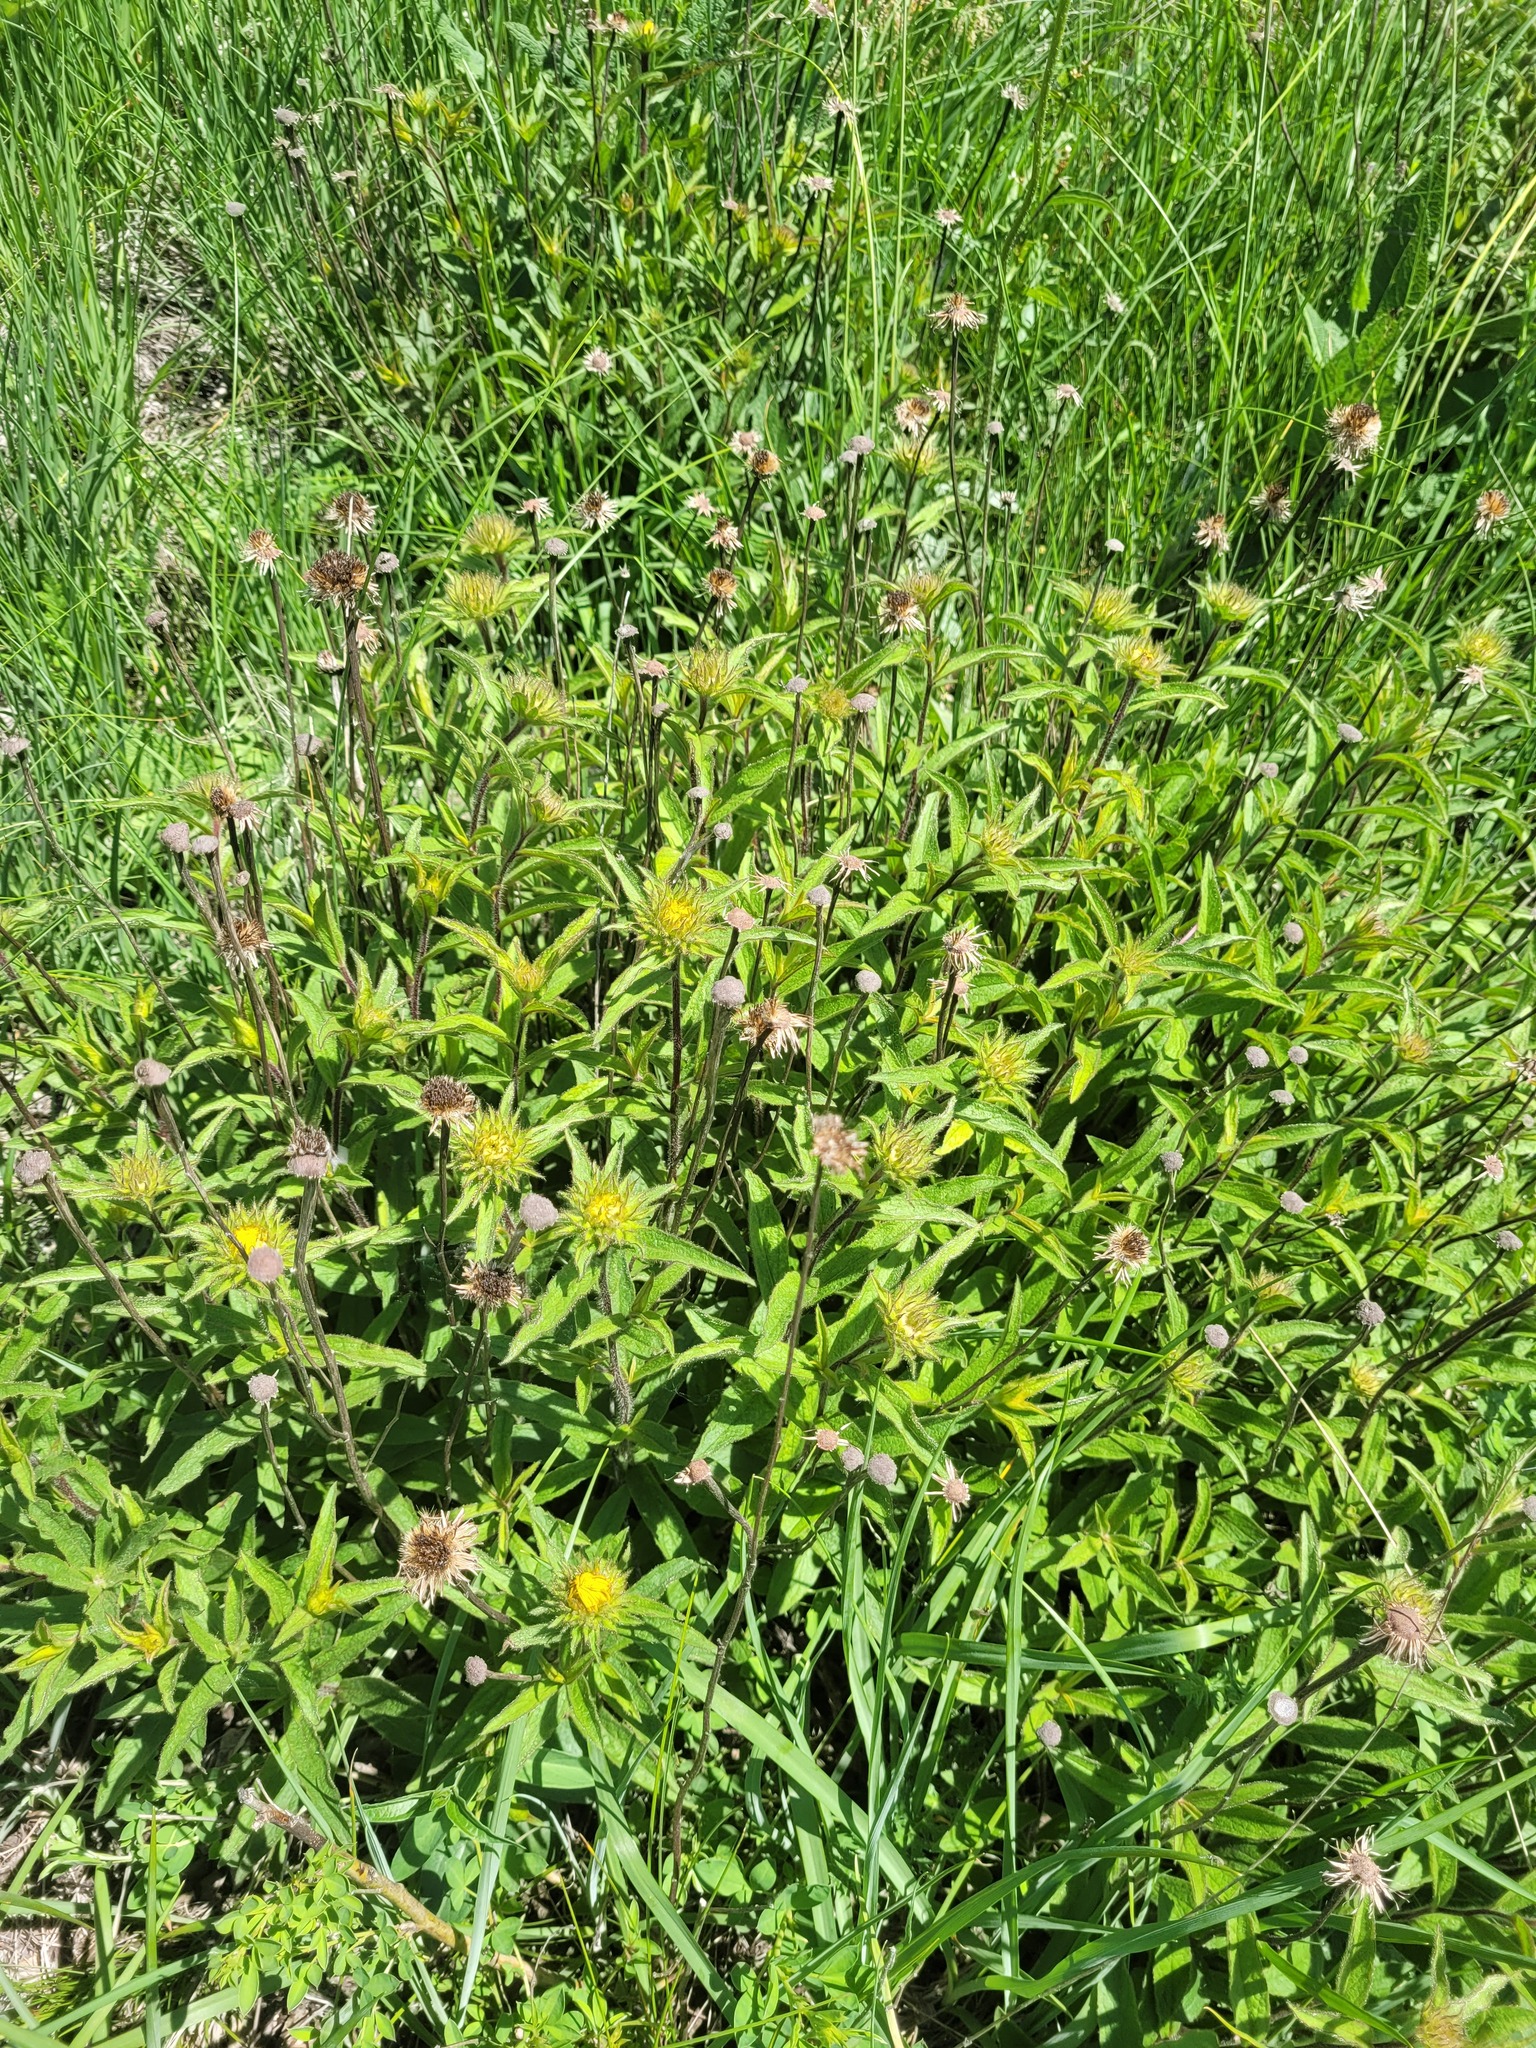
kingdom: Plantae
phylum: Tracheophyta
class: Magnoliopsida
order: Asterales
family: Asteraceae
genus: Pentanema
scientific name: Pentanema hirtum
